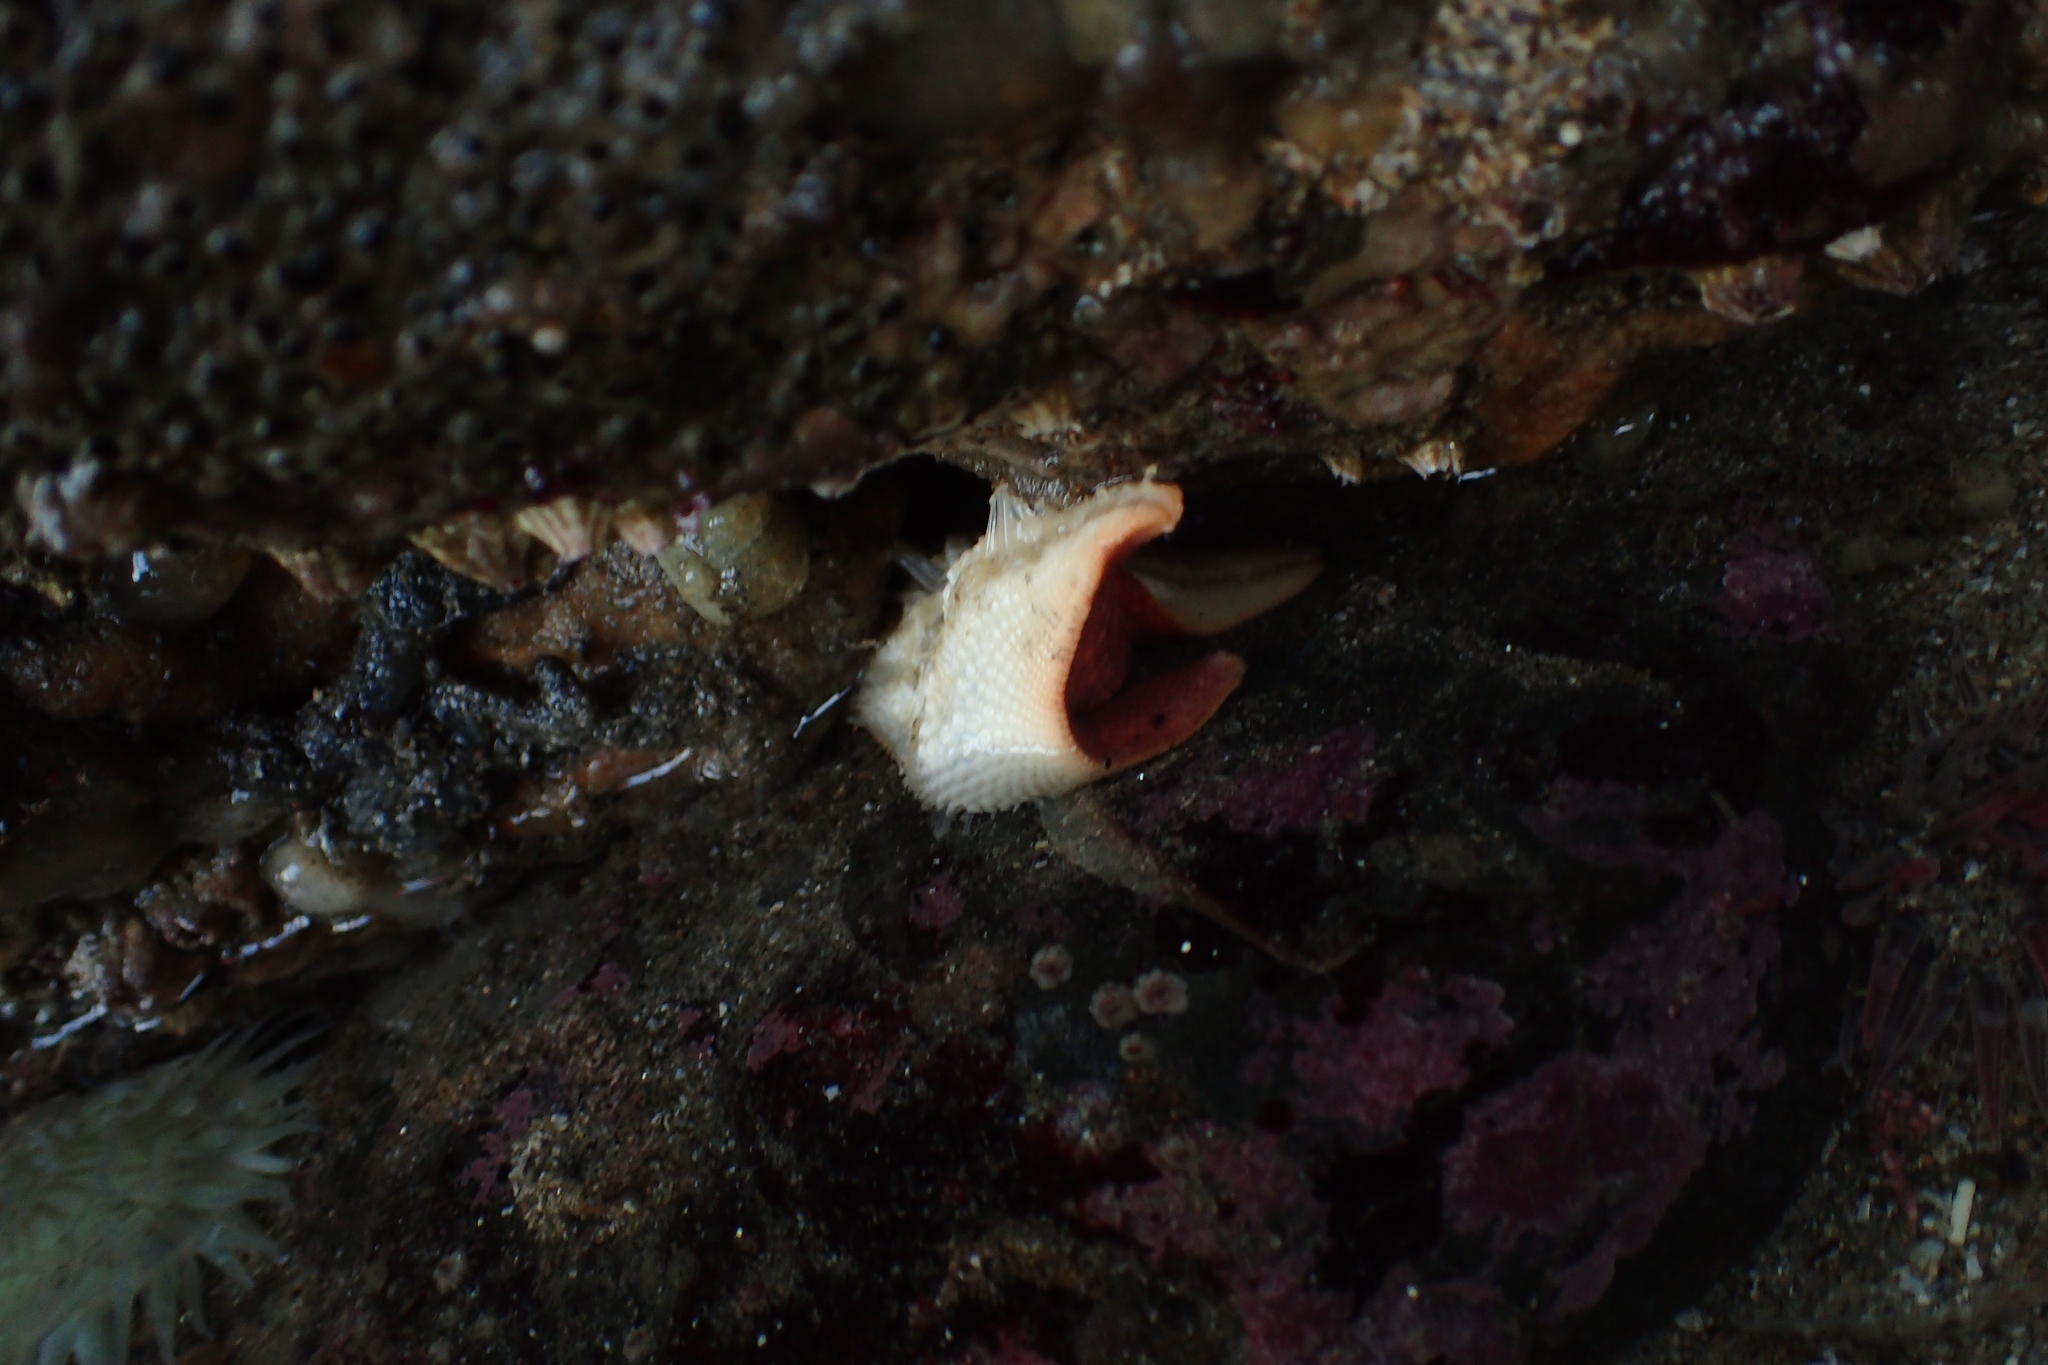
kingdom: Animalia
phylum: Echinodermata
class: Asteroidea
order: Valvatida
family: Asterinidae
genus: Patiria
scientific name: Patiria miniata
